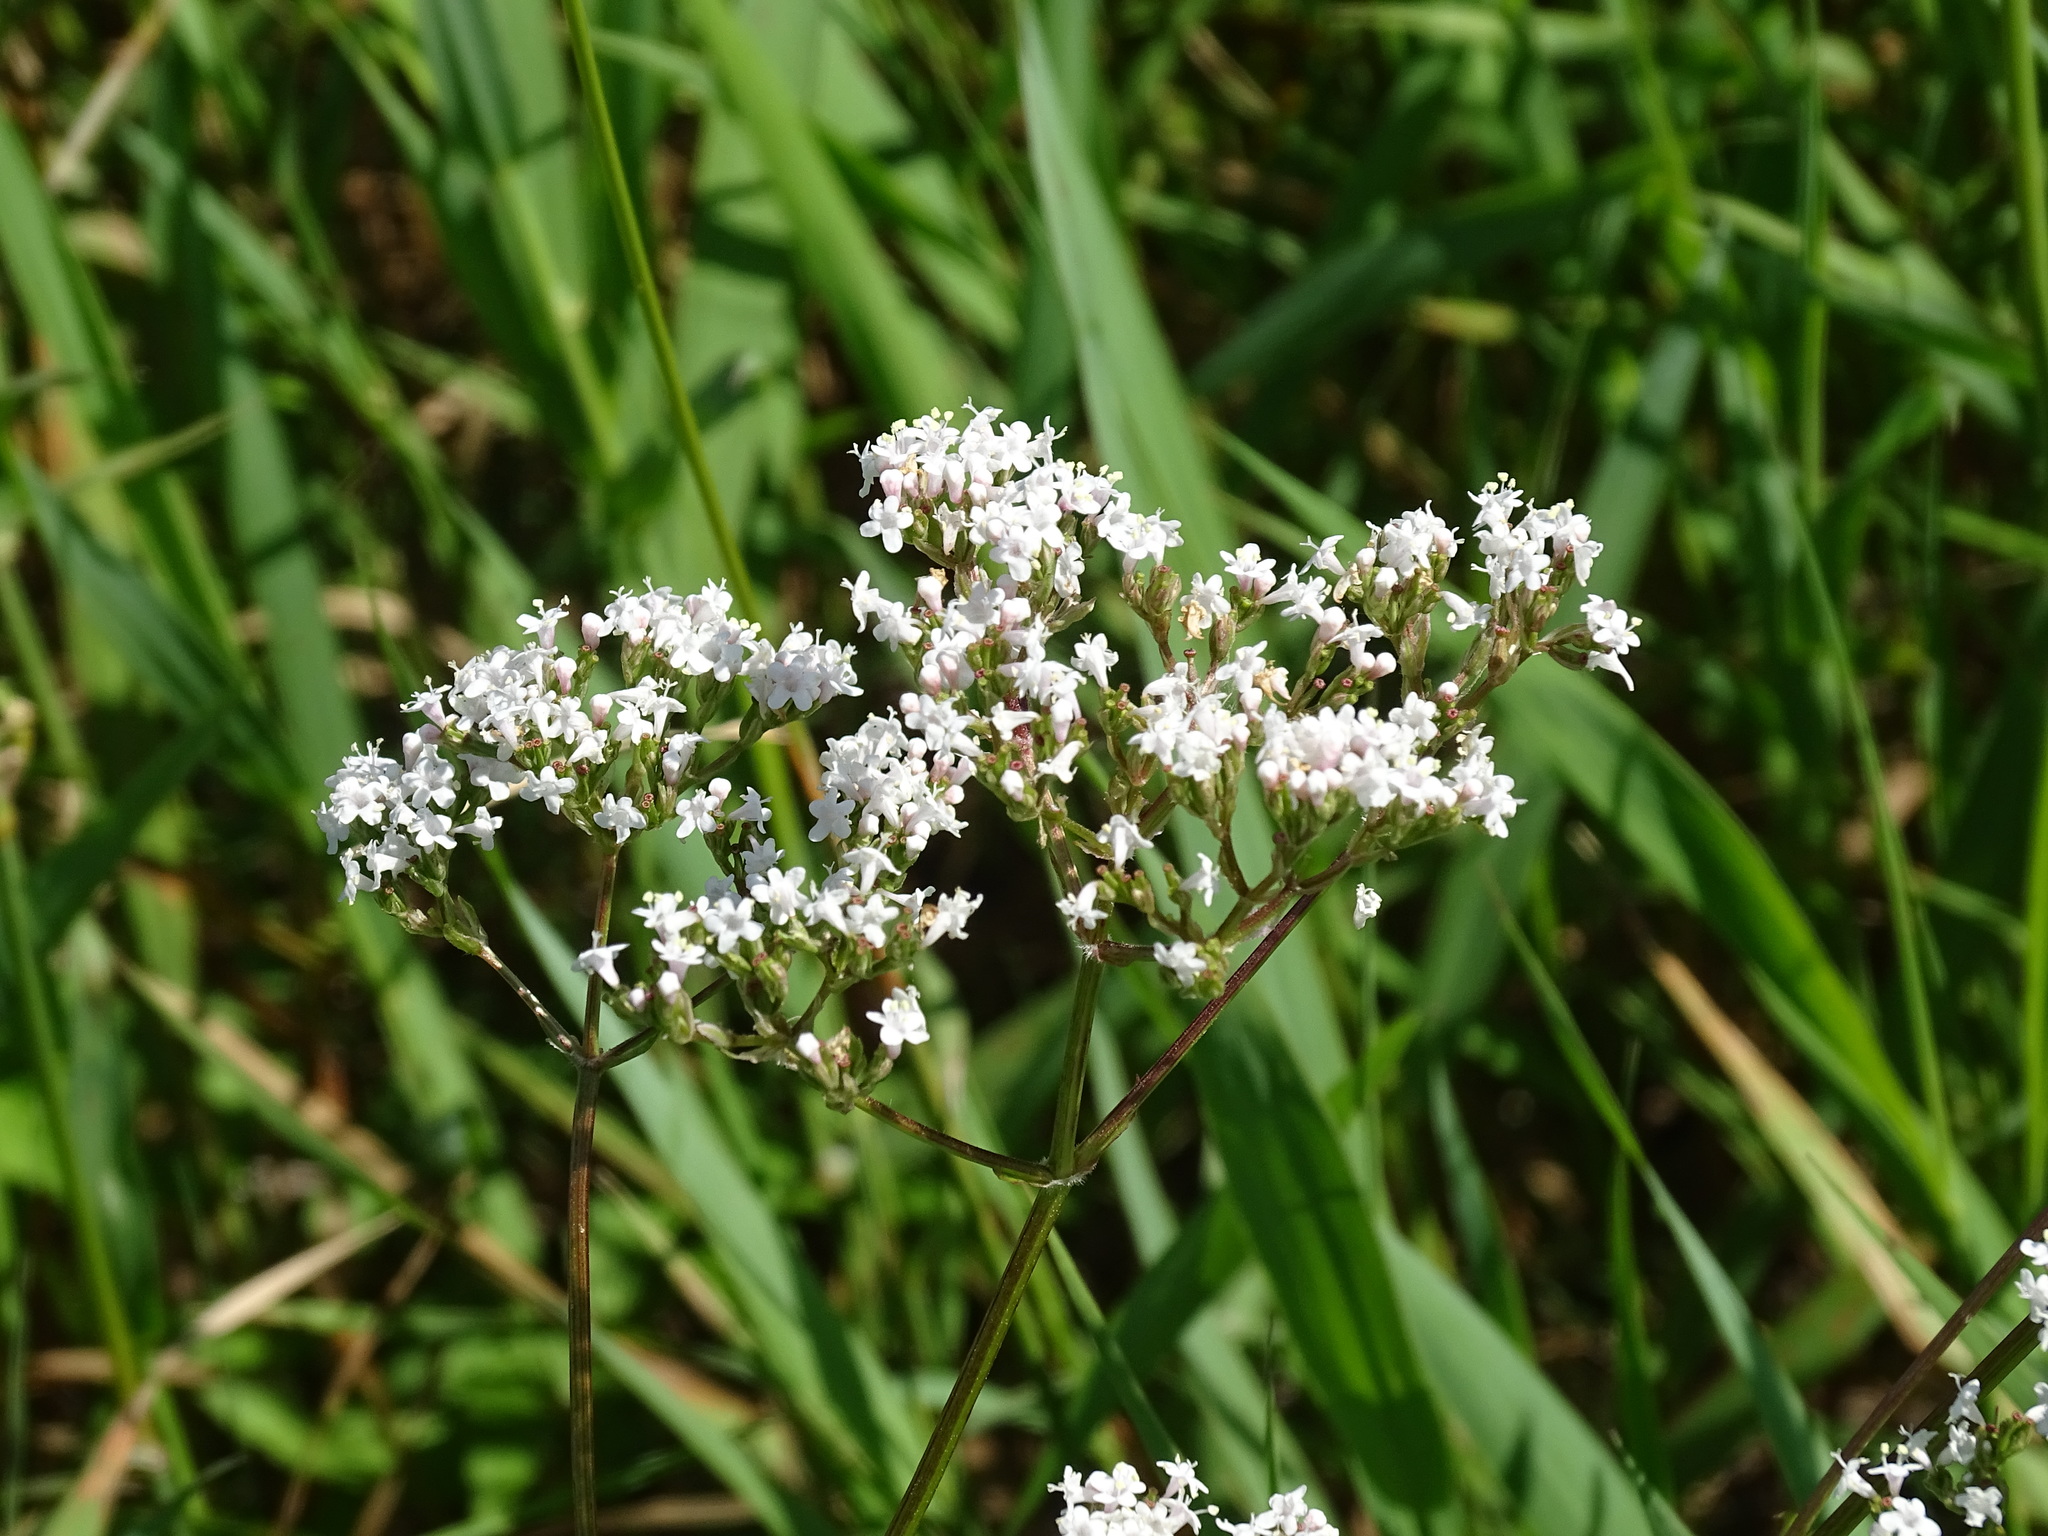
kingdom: Plantae
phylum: Tracheophyta
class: Magnoliopsida
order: Dipsacales
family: Caprifoliaceae
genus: Valeriana
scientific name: Valeriana officinalis
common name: Common valerian
